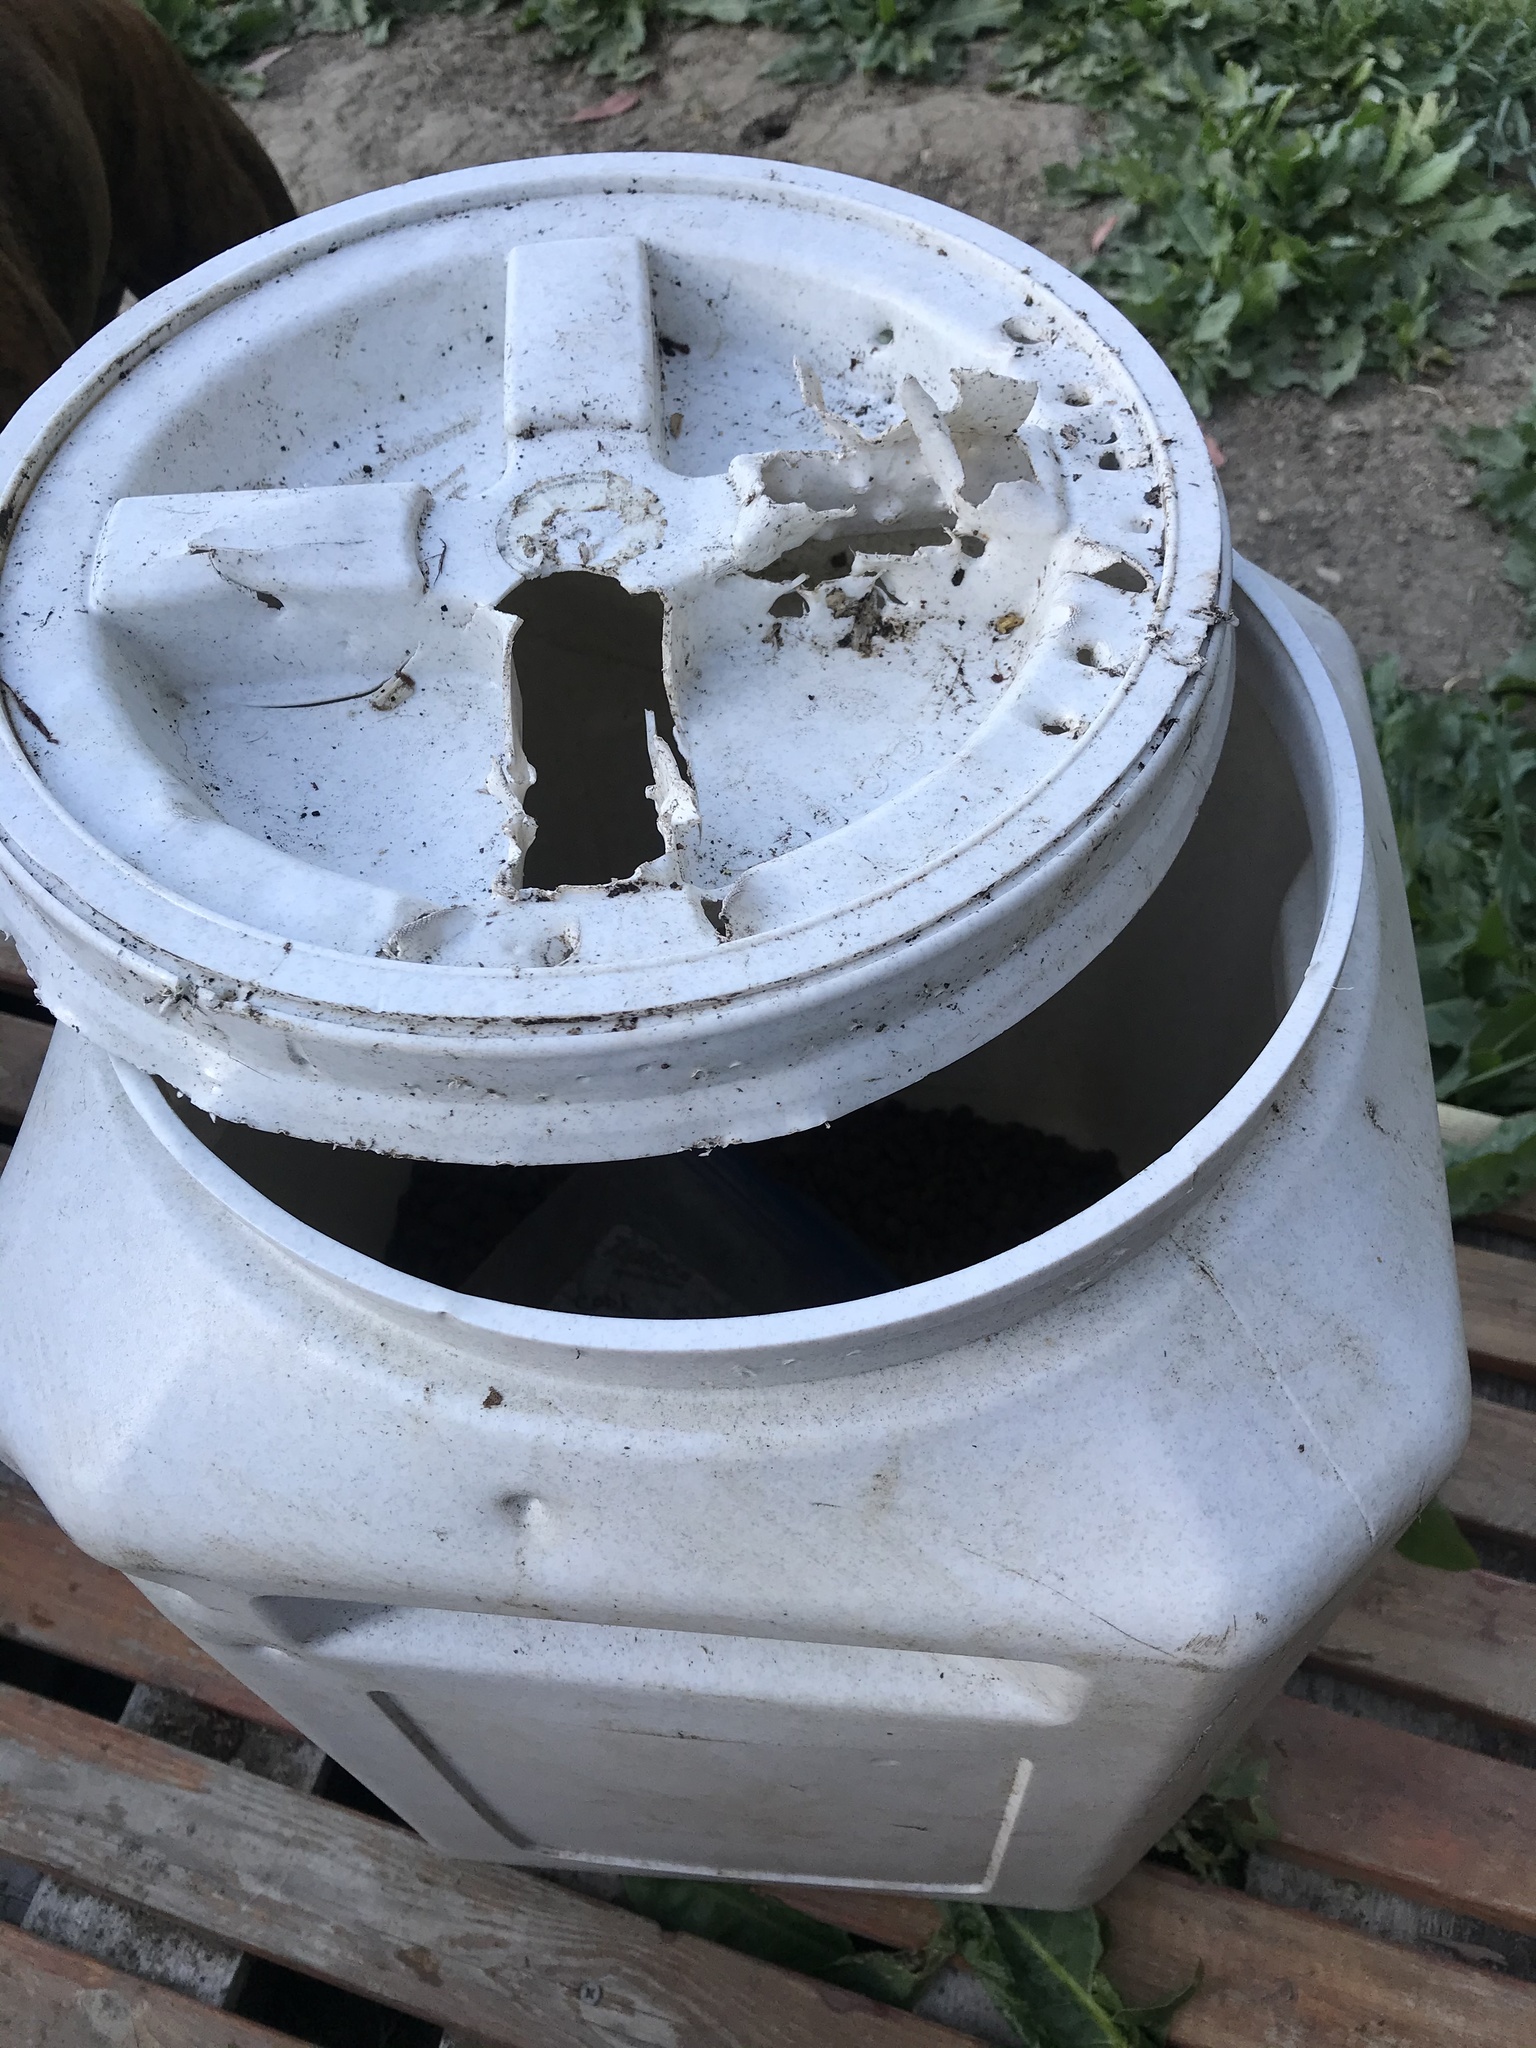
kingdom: Animalia
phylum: Chordata
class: Mammalia
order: Carnivora
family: Ursidae
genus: Ursus
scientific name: Ursus americanus
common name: American black bear
